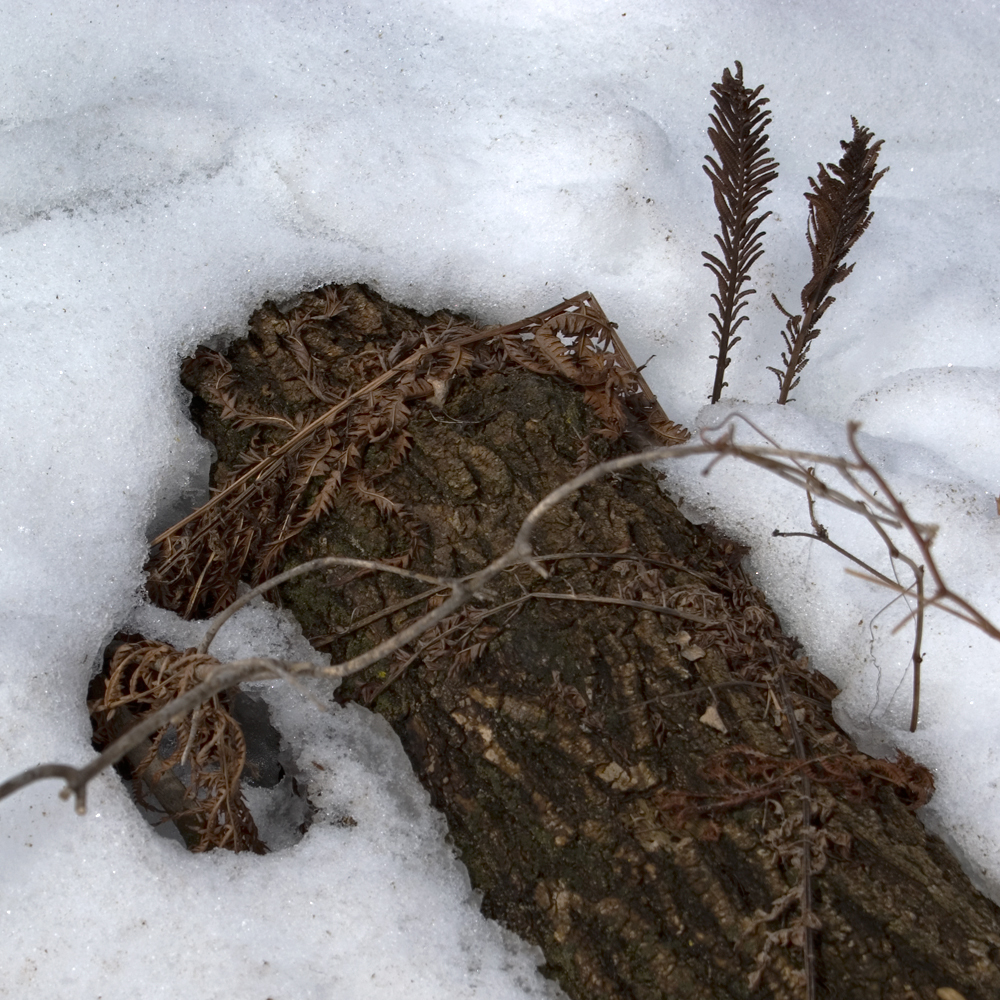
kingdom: Plantae
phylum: Tracheophyta
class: Polypodiopsida
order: Polypodiales
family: Onocleaceae
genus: Matteuccia
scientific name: Matteuccia struthiopteris
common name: Ostrich fern
